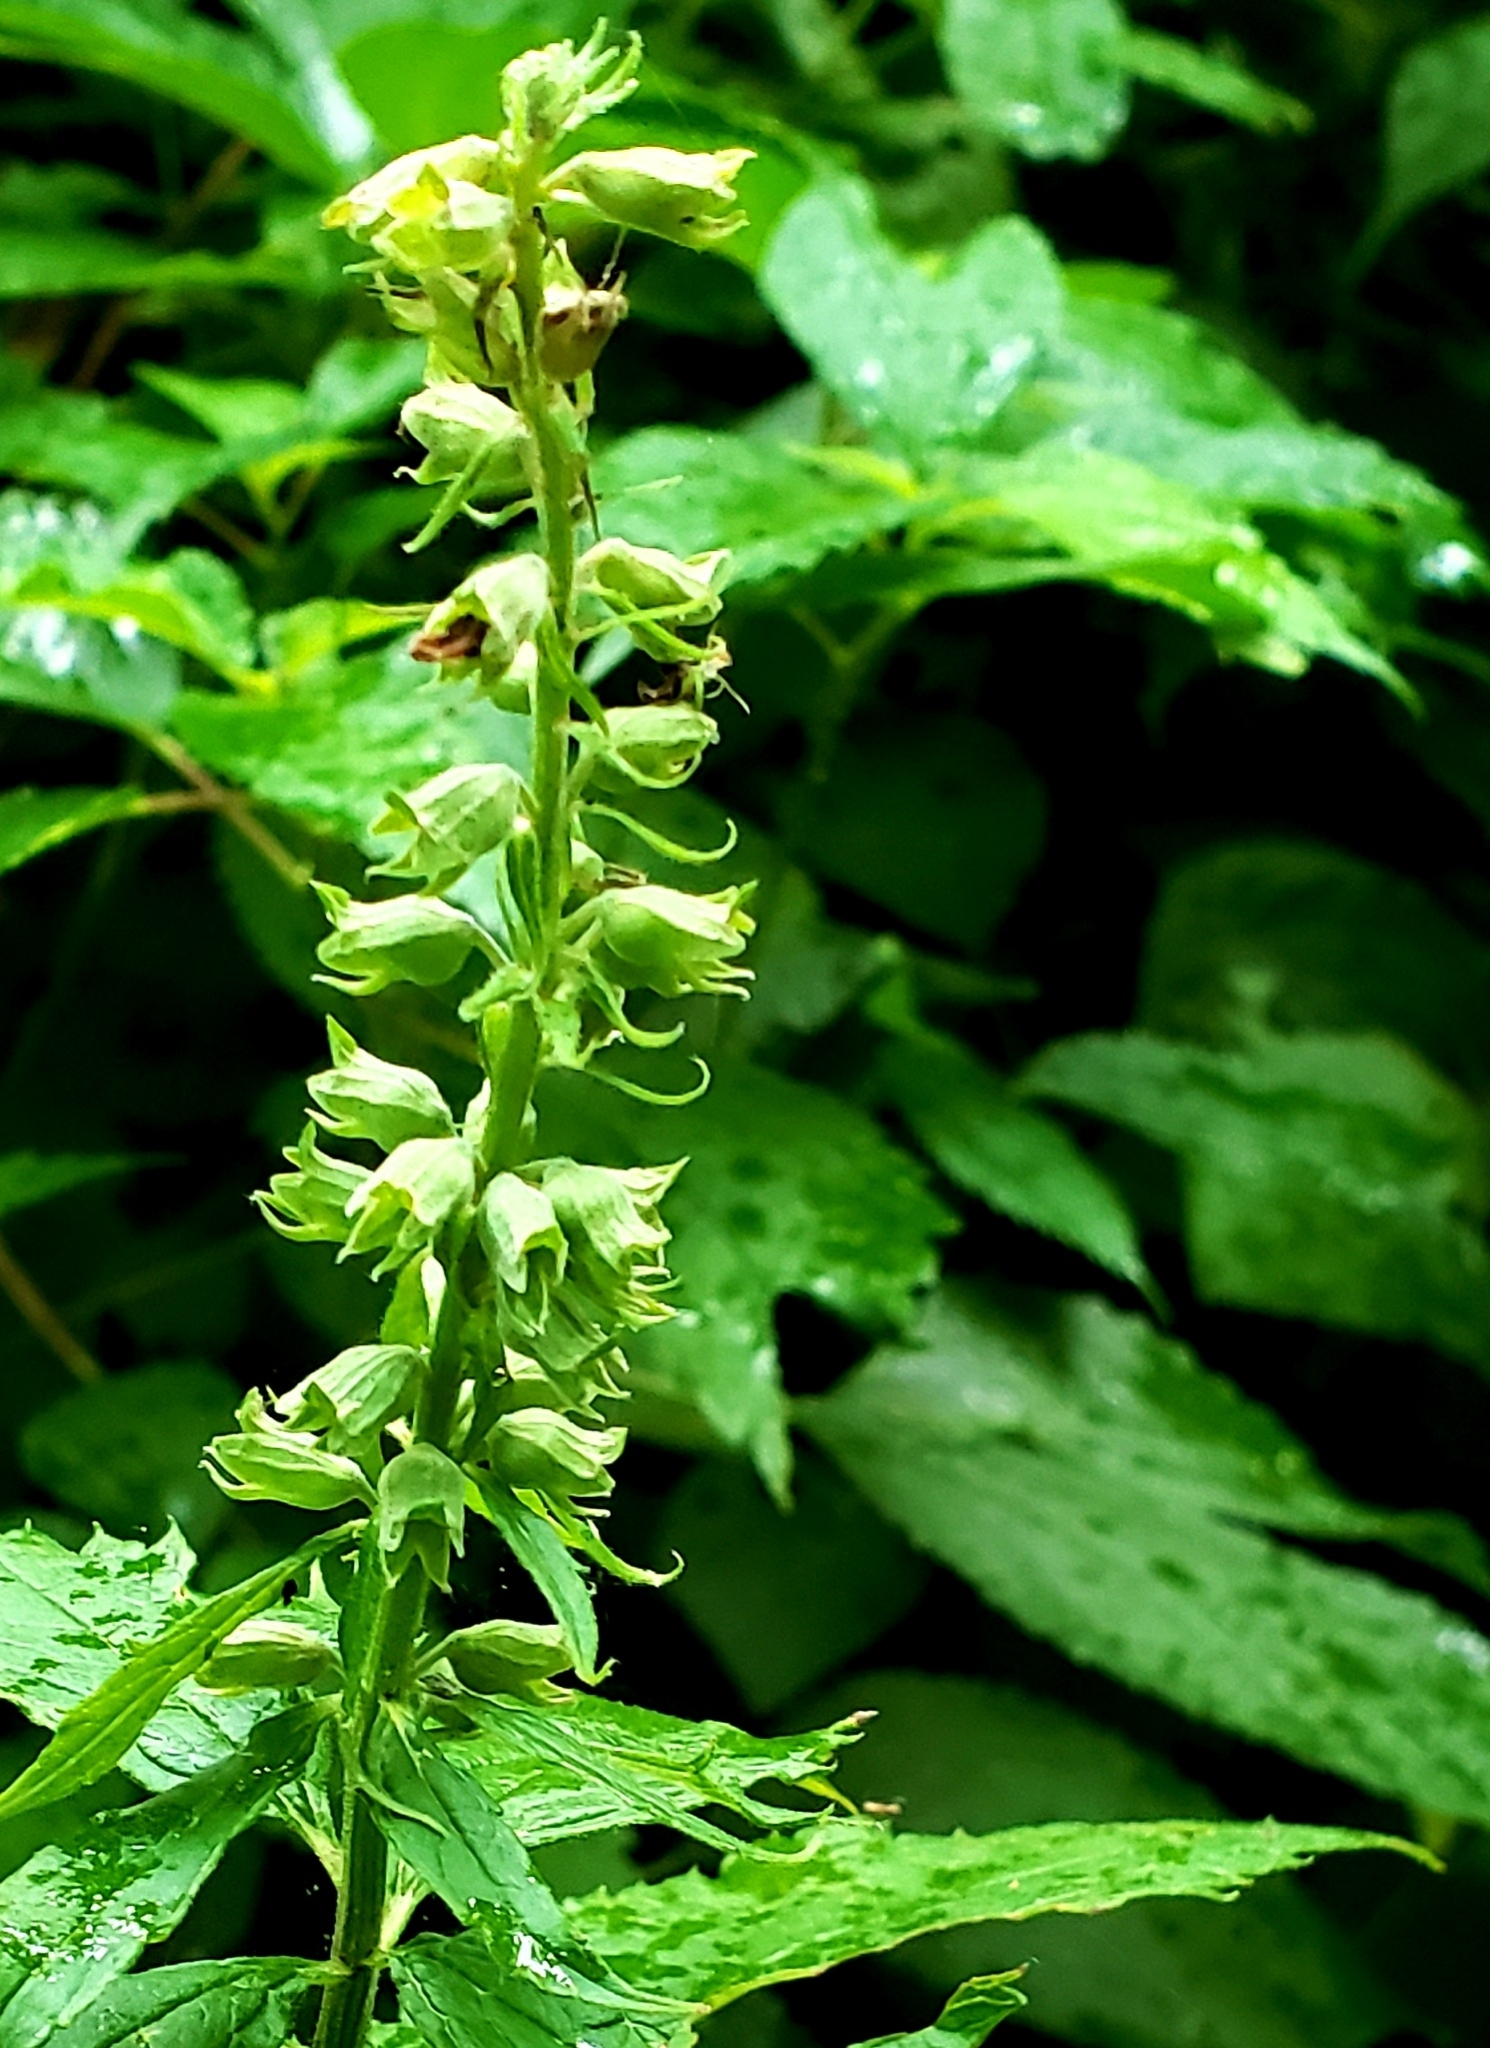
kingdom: Plantae
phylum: Tracheophyta
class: Magnoliopsida
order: Lamiales
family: Lamiaceae
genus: Teucrium
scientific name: Teucrium canadense
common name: American germander
